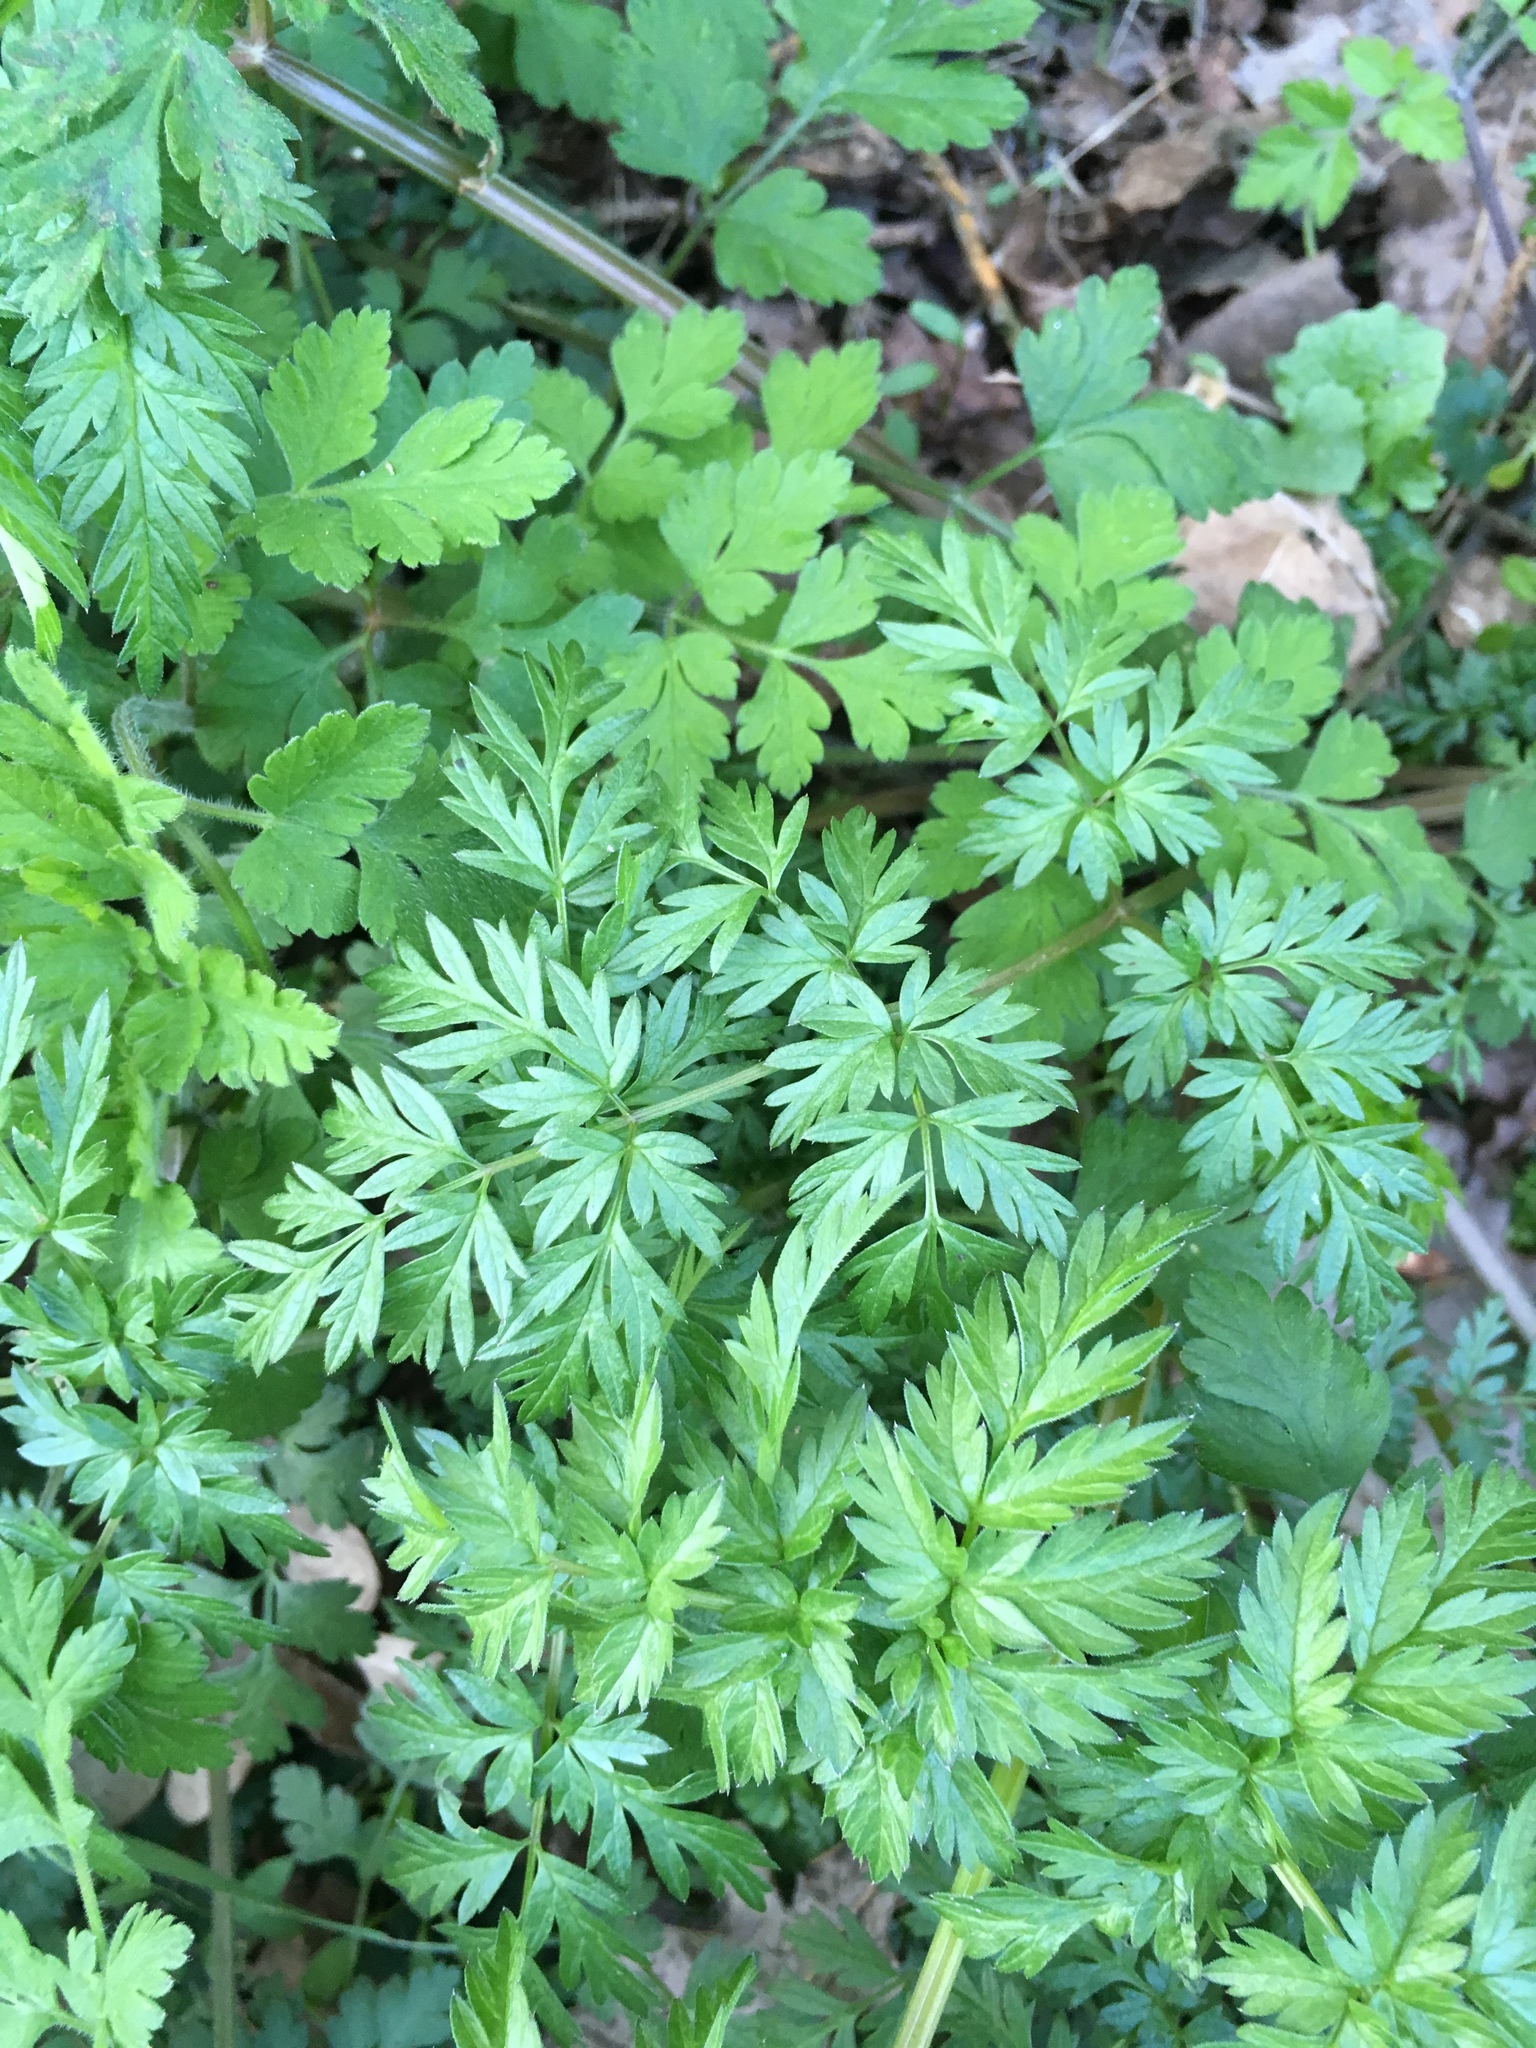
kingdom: Plantae
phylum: Tracheophyta
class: Magnoliopsida
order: Apiales
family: Apiaceae
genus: Anthriscus
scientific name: Anthriscus sylvestris
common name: Cow parsley
